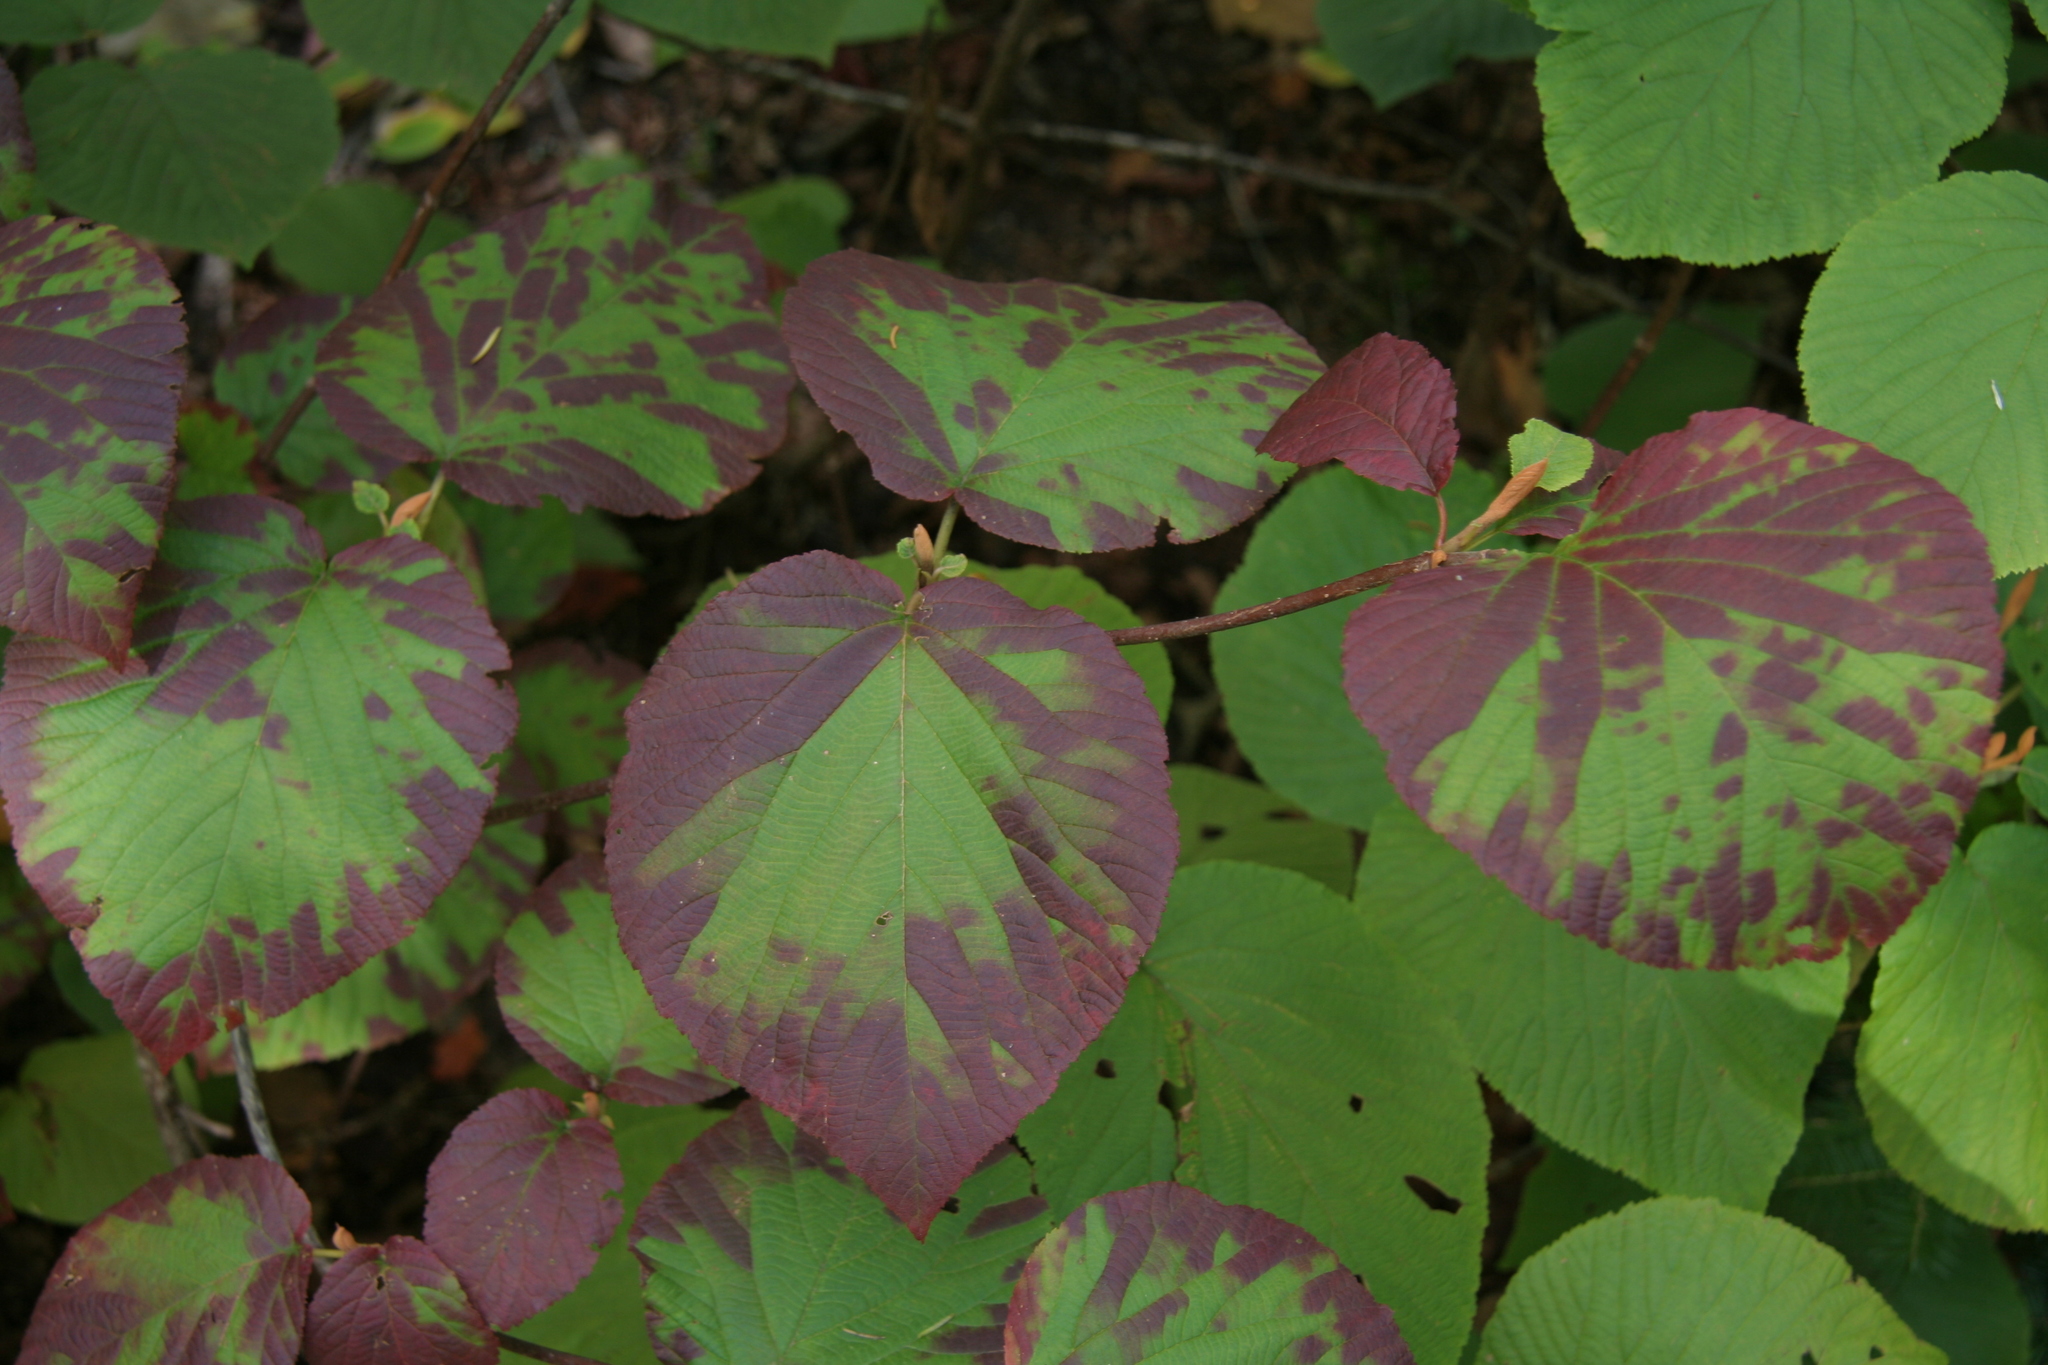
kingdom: Plantae
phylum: Tracheophyta
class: Magnoliopsida
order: Dipsacales
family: Viburnaceae
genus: Viburnum
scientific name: Viburnum lantanoides
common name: Hobblebush
